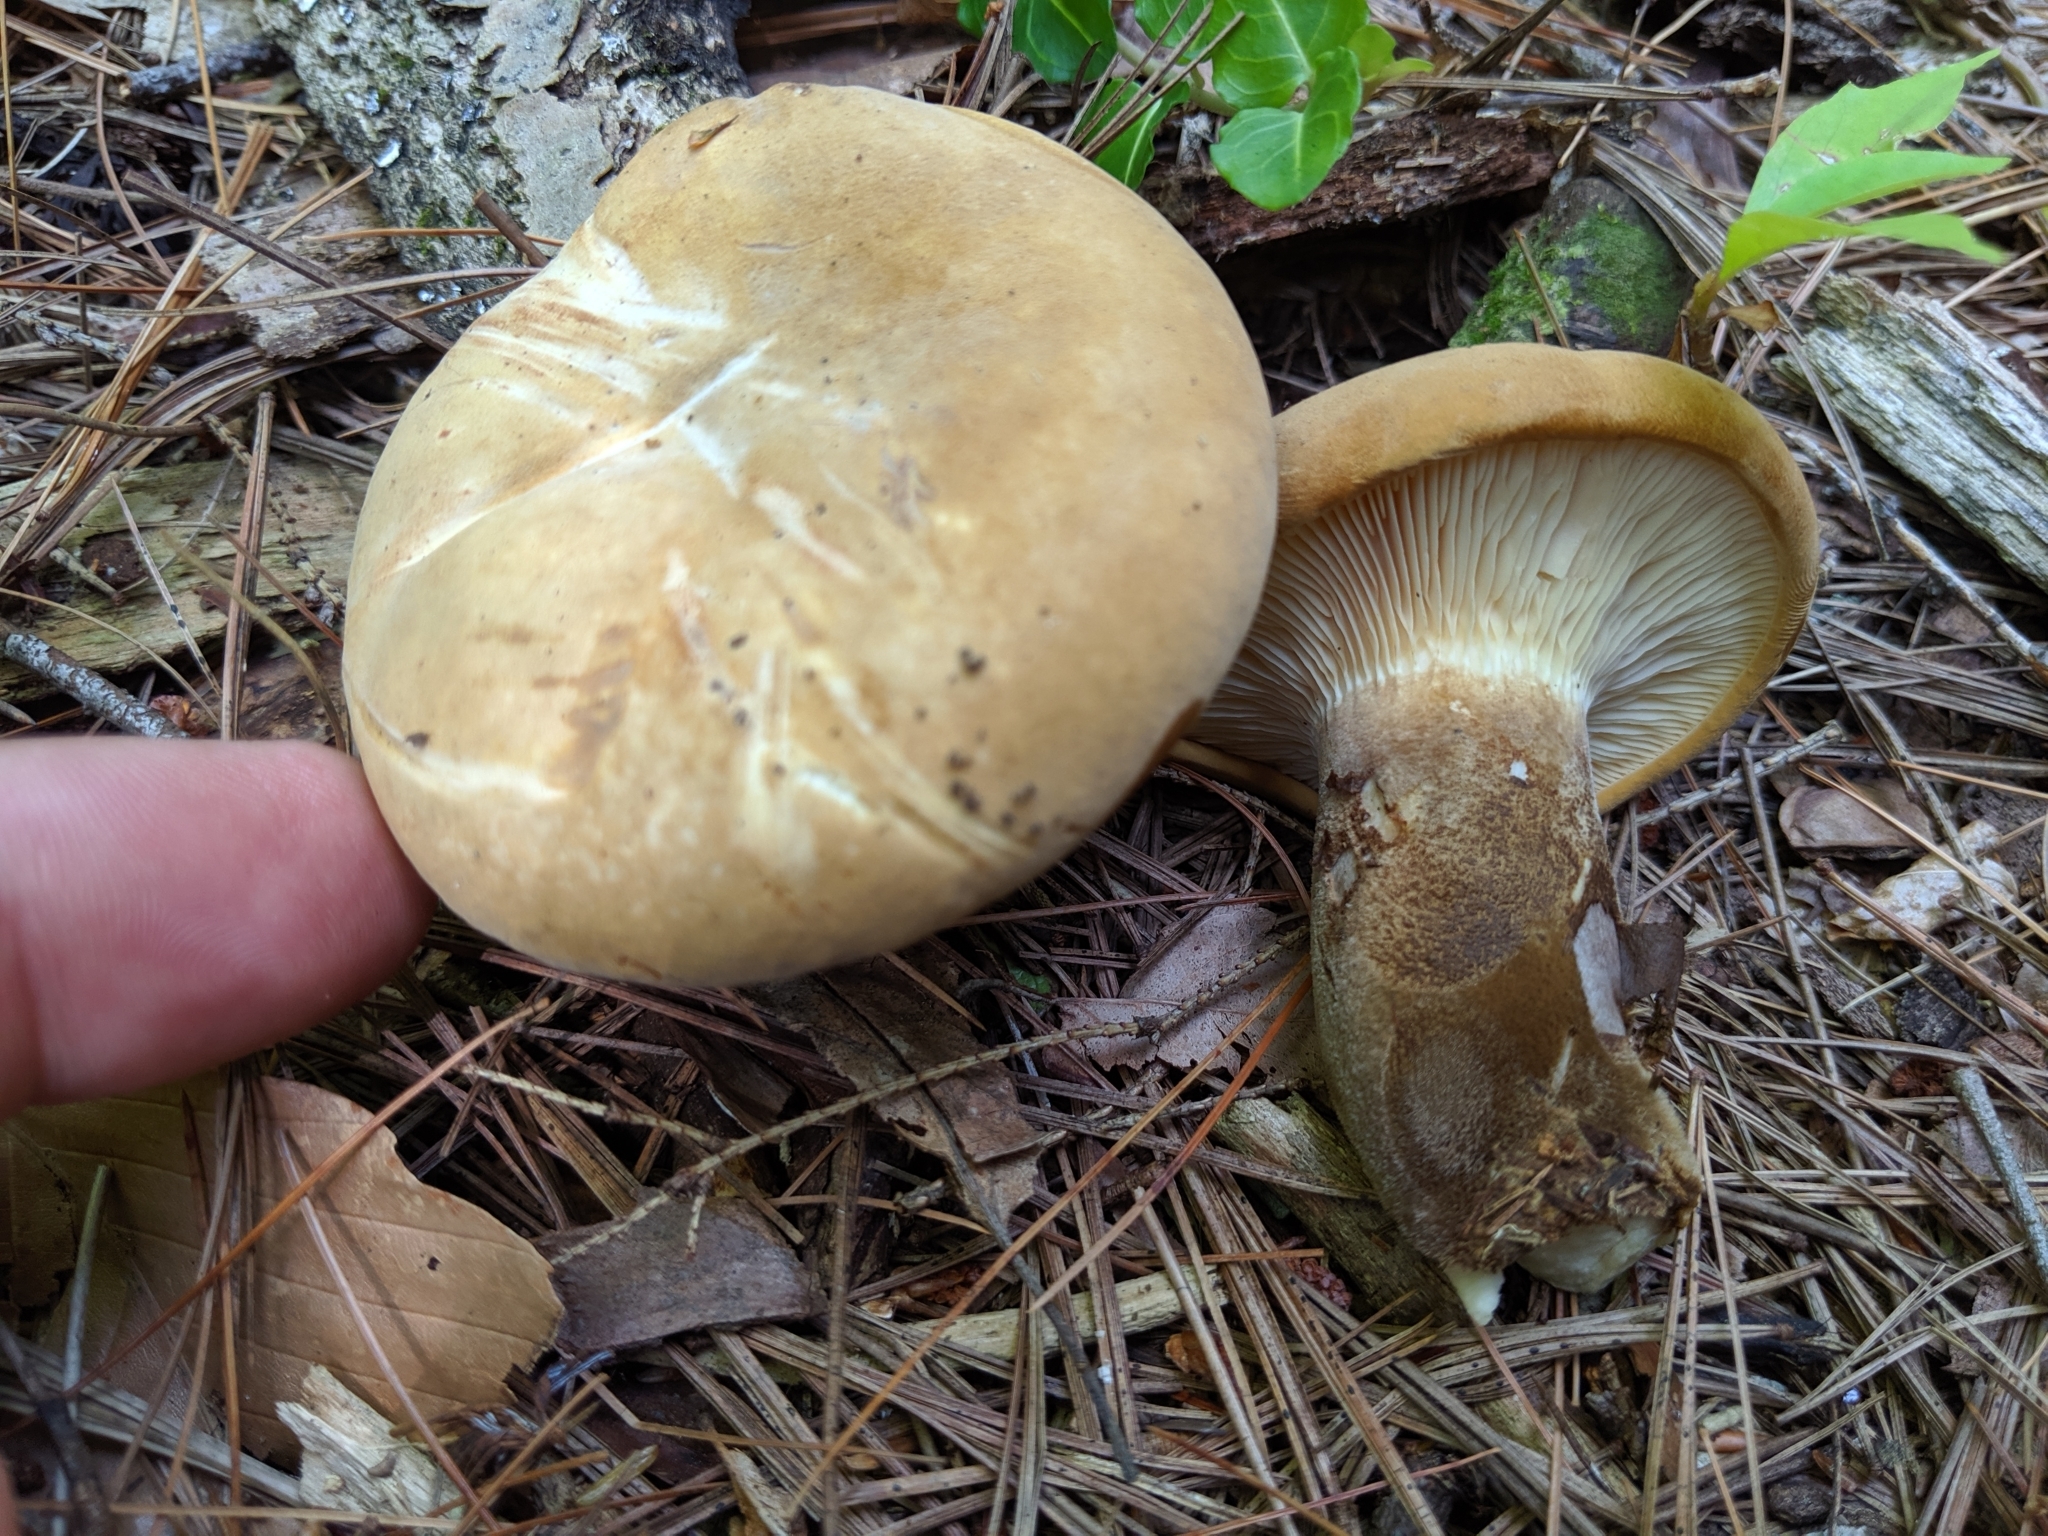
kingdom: Fungi
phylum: Basidiomycota
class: Agaricomycetes
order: Boletales
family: Tapinellaceae
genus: Tapinella
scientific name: Tapinella atrotomentosa
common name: Velvet rollrim
